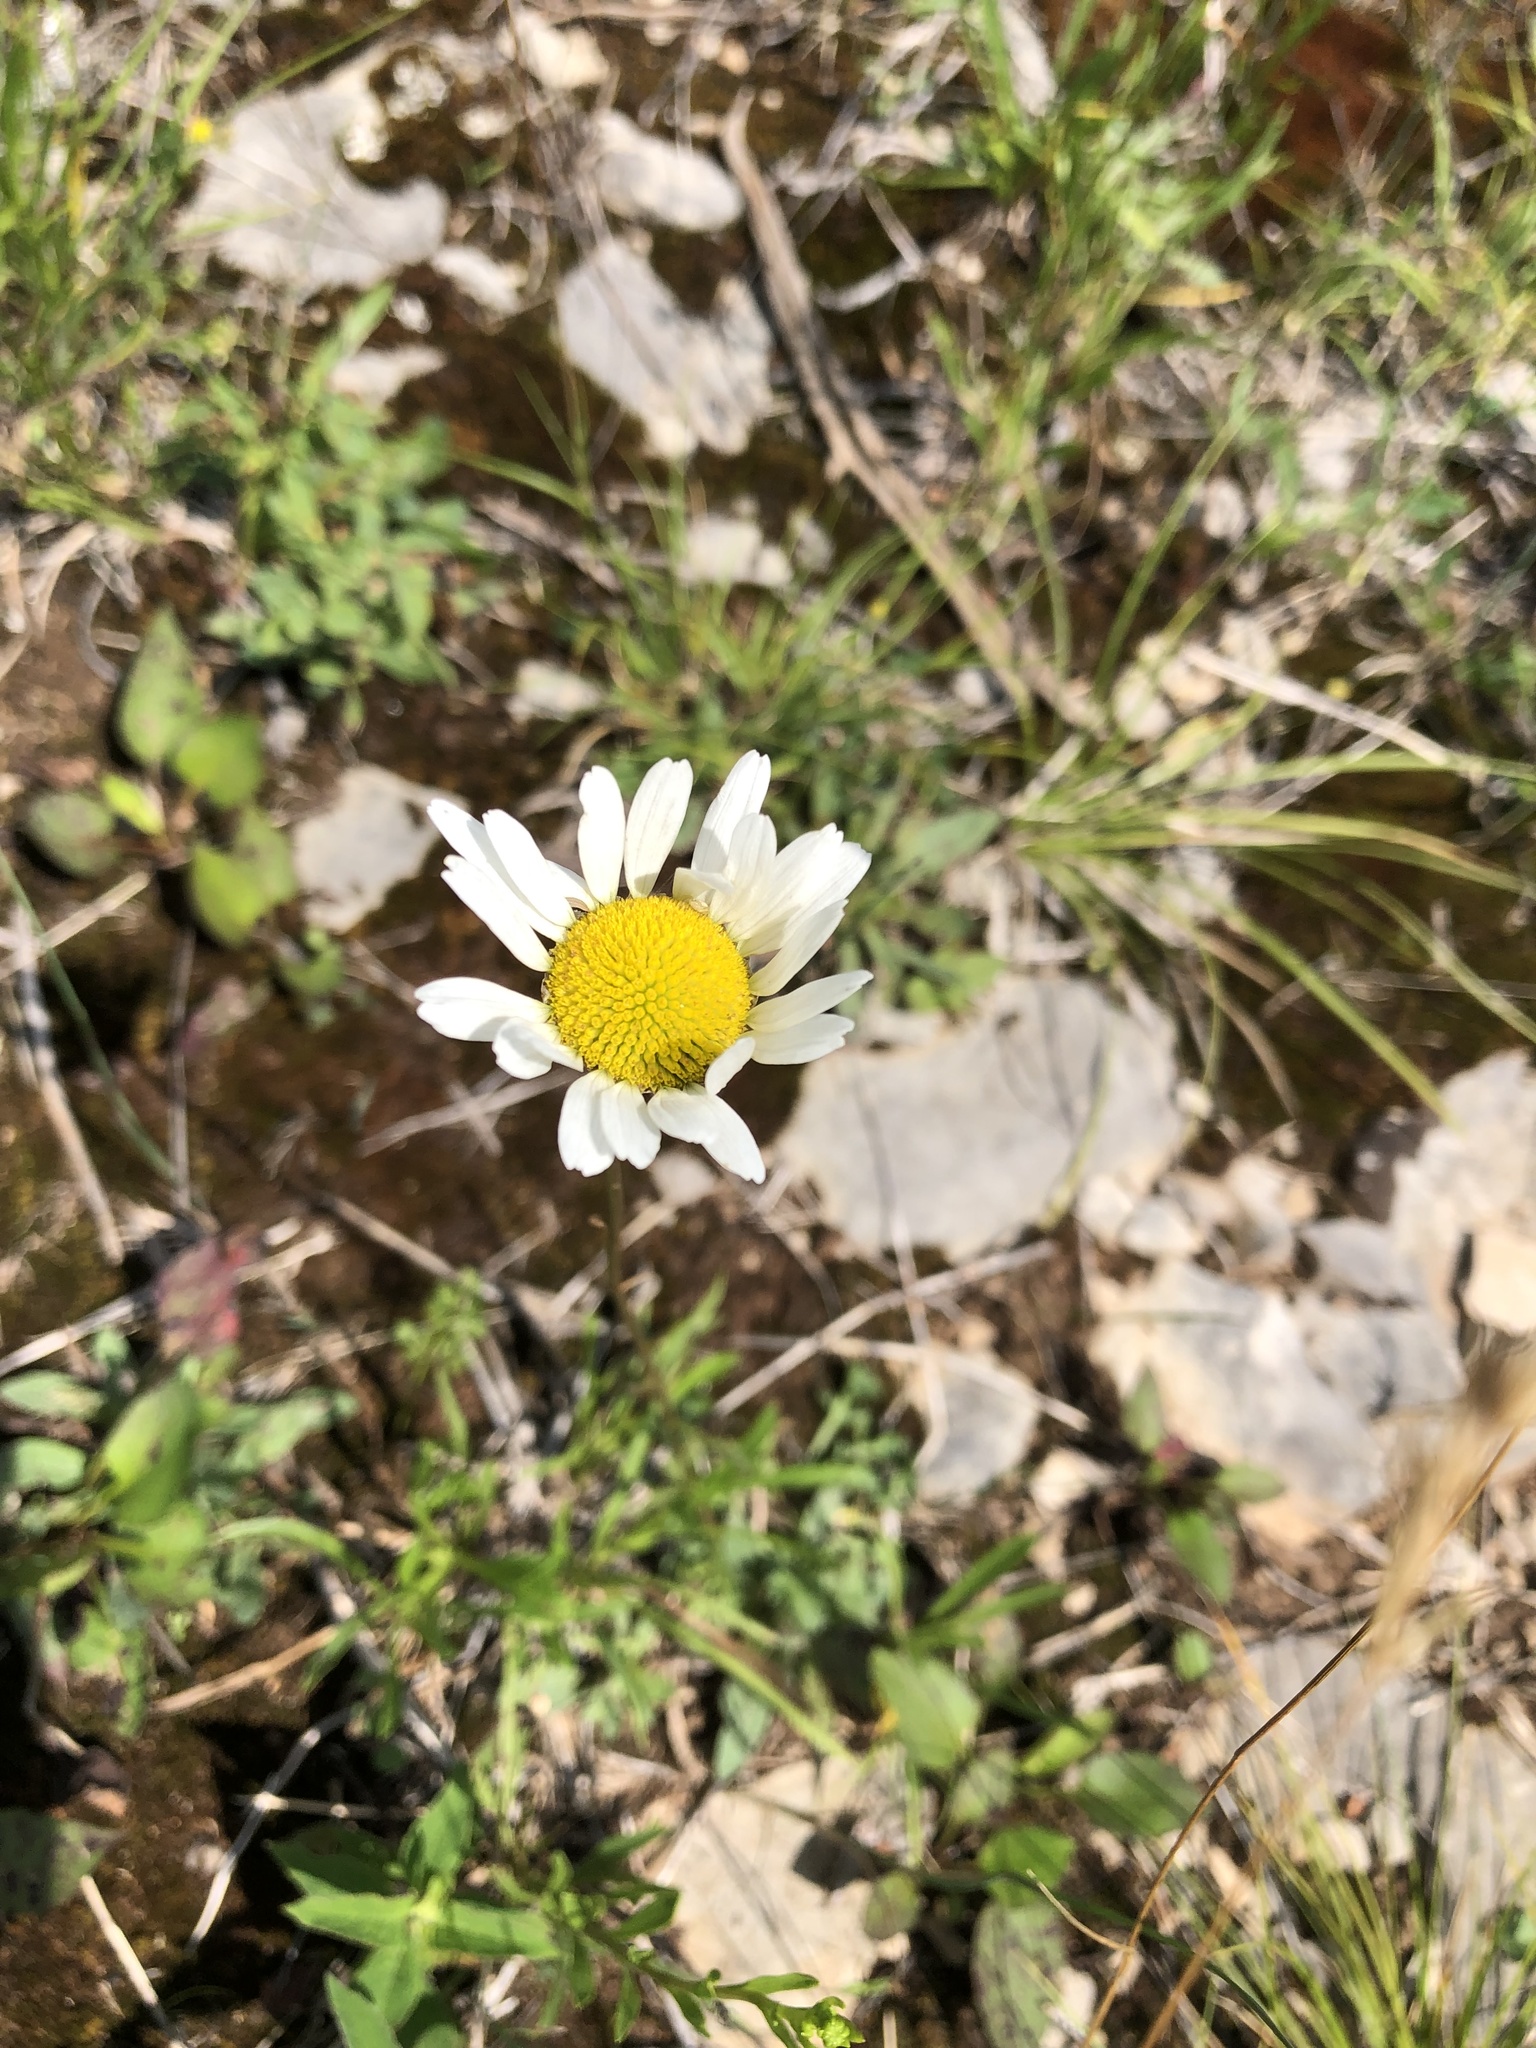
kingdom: Plantae
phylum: Tracheophyta
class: Magnoliopsida
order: Asterales
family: Asteraceae
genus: Leucanthemum
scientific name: Leucanthemum vulgare
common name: Oxeye daisy
